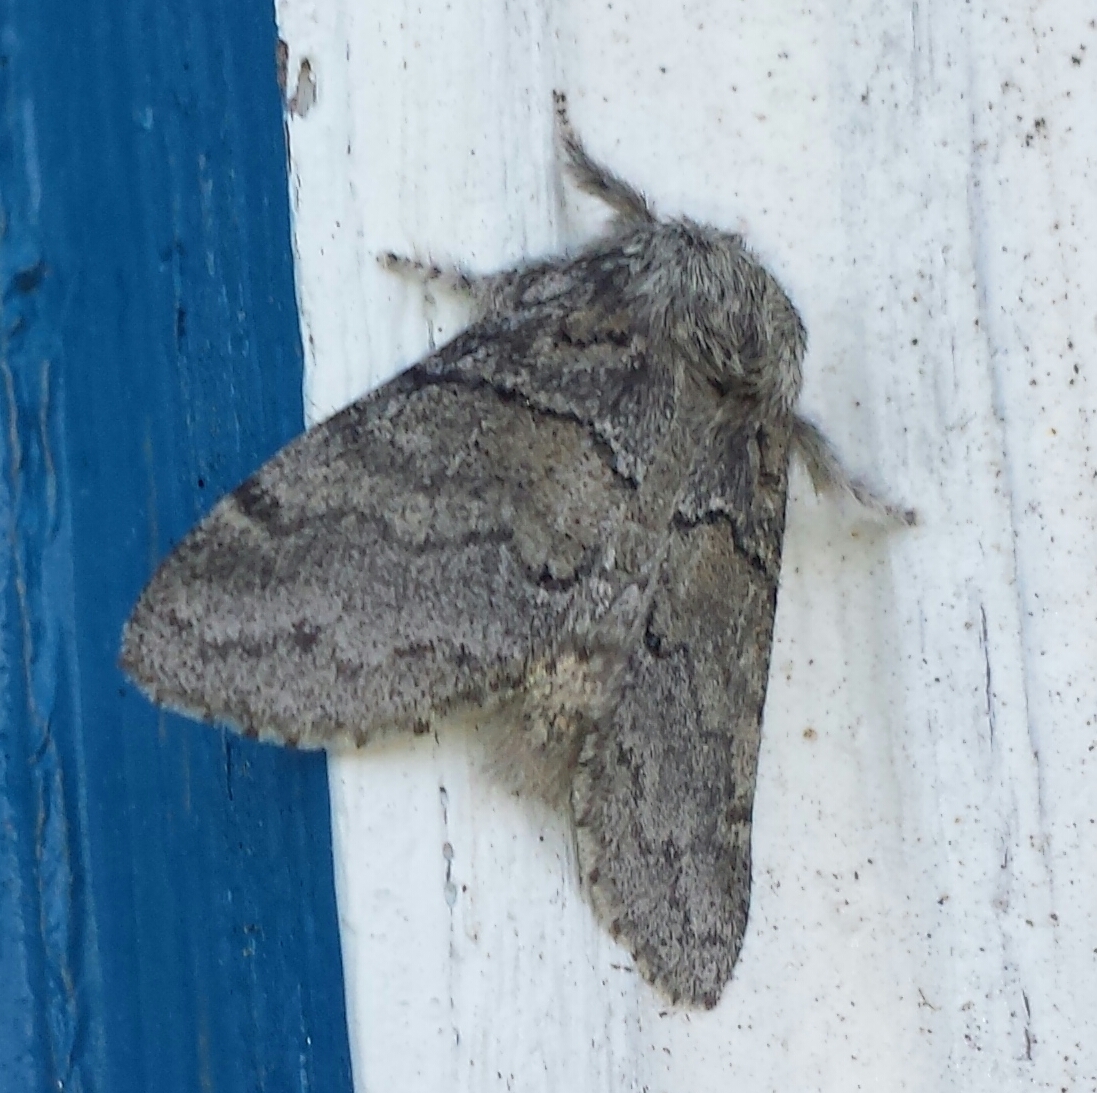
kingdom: Animalia
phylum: Arthropoda
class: Insecta
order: Lepidoptera
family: Notodontidae
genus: Gluphisia
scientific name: Gluphisia septentrionis
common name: Common gluphisia
